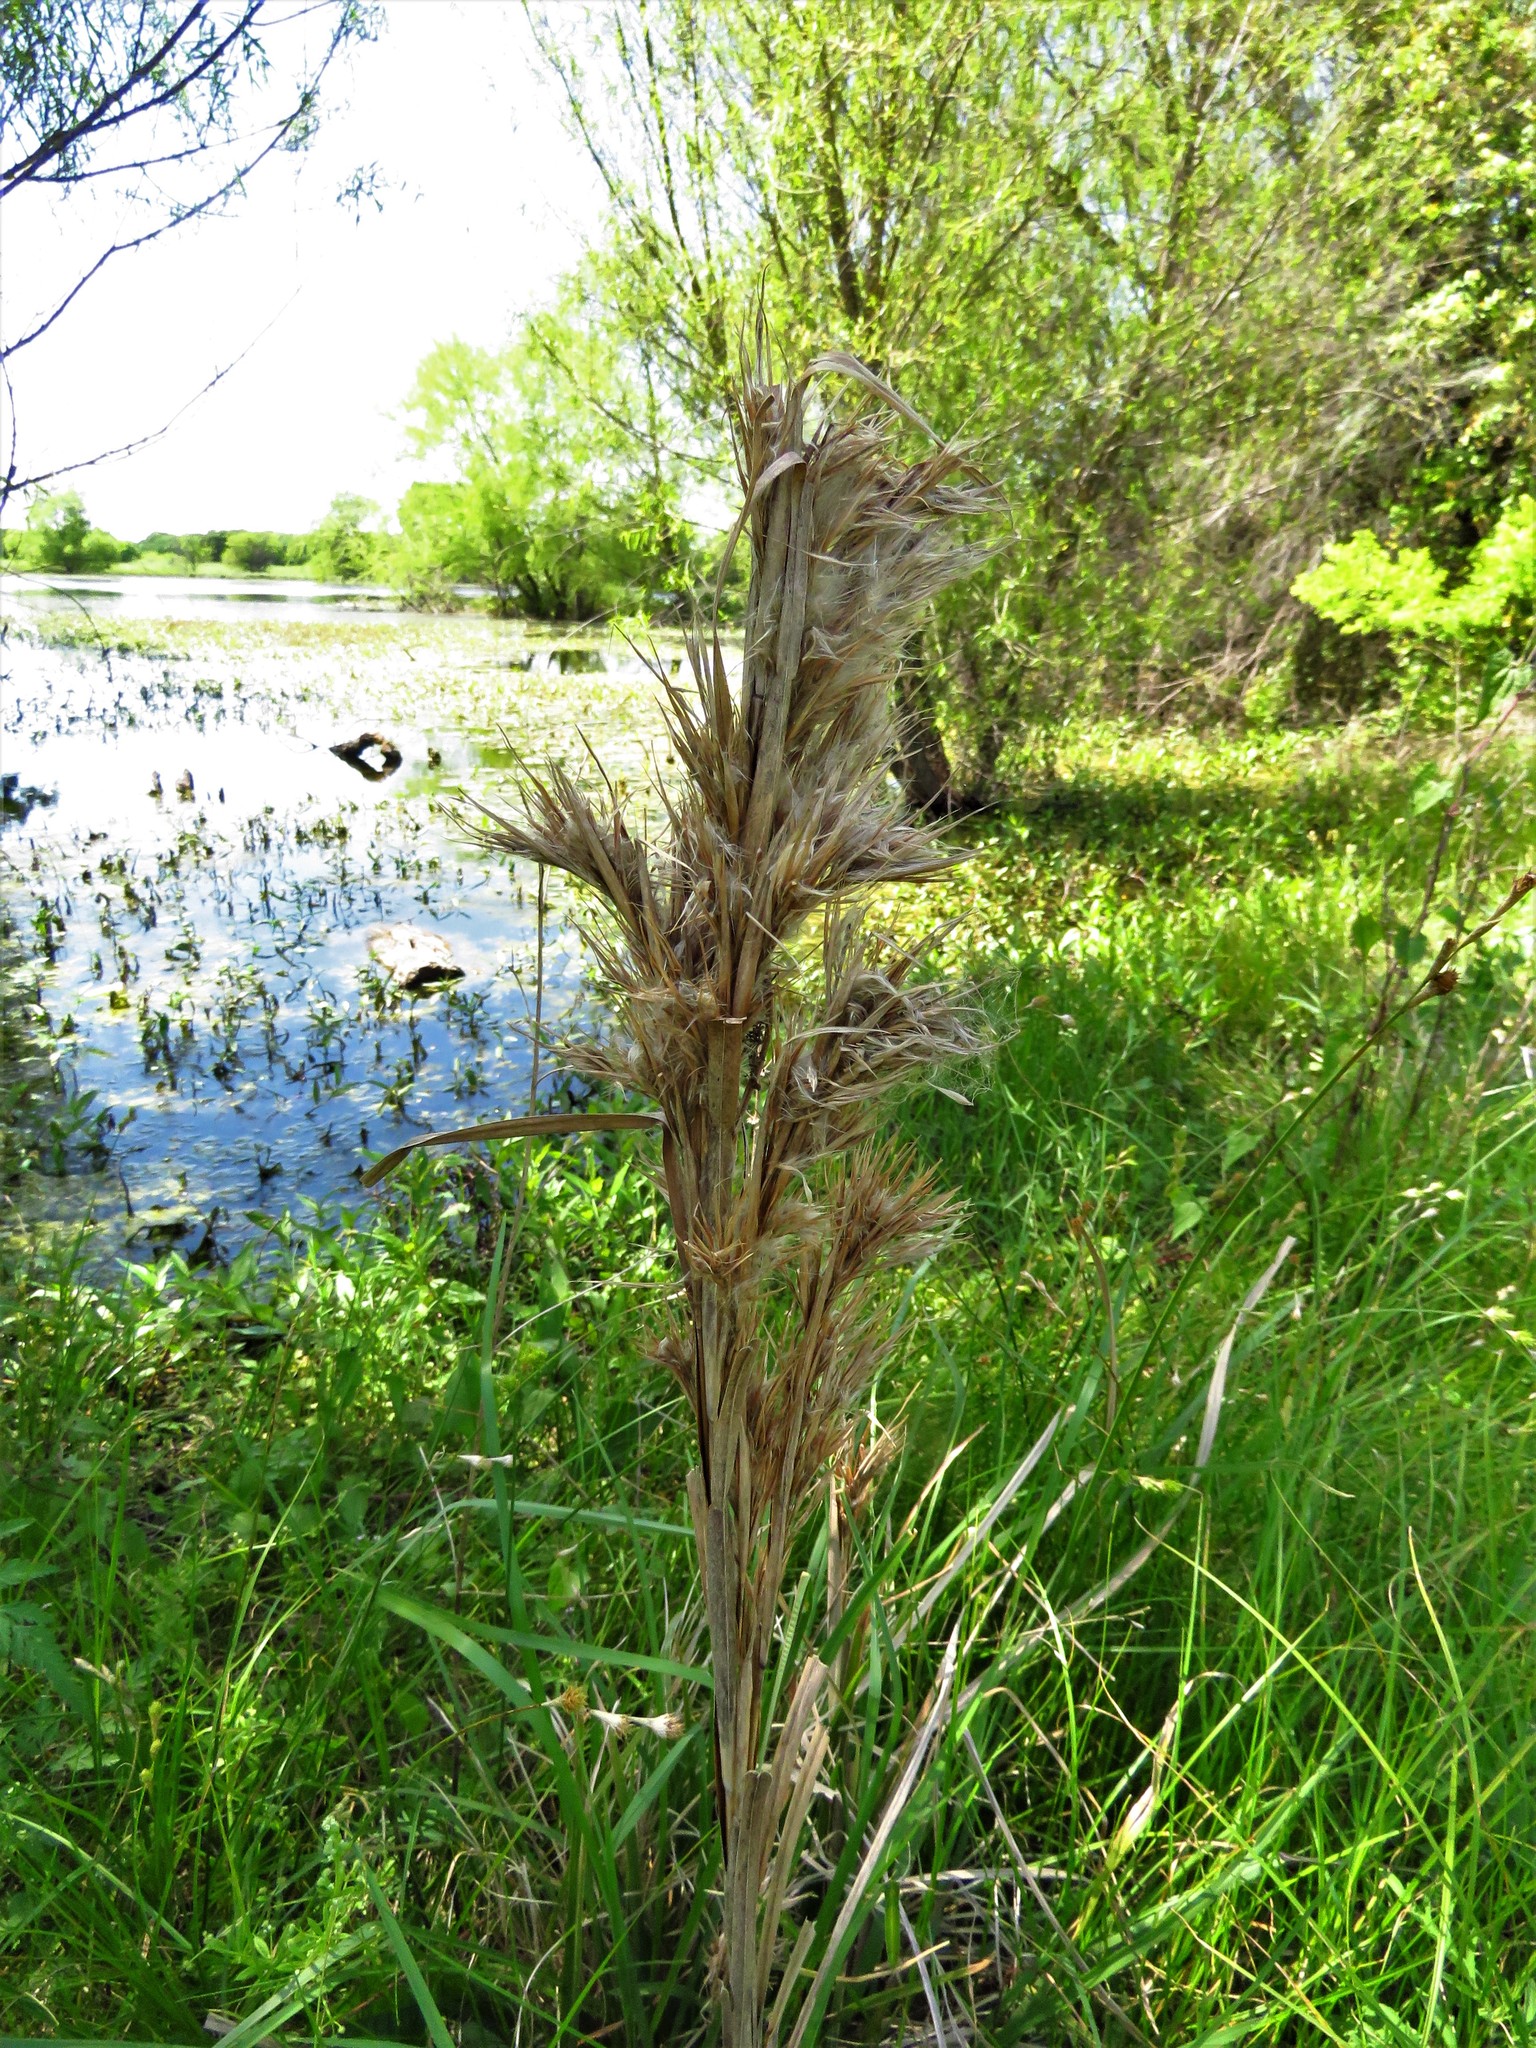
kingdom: Plantae
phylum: Tracheophyta
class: Liliopsida
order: Poales
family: Poaceae
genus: Andropogon
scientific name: Andropogon tenuispatheus
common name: Bushy bluestem
